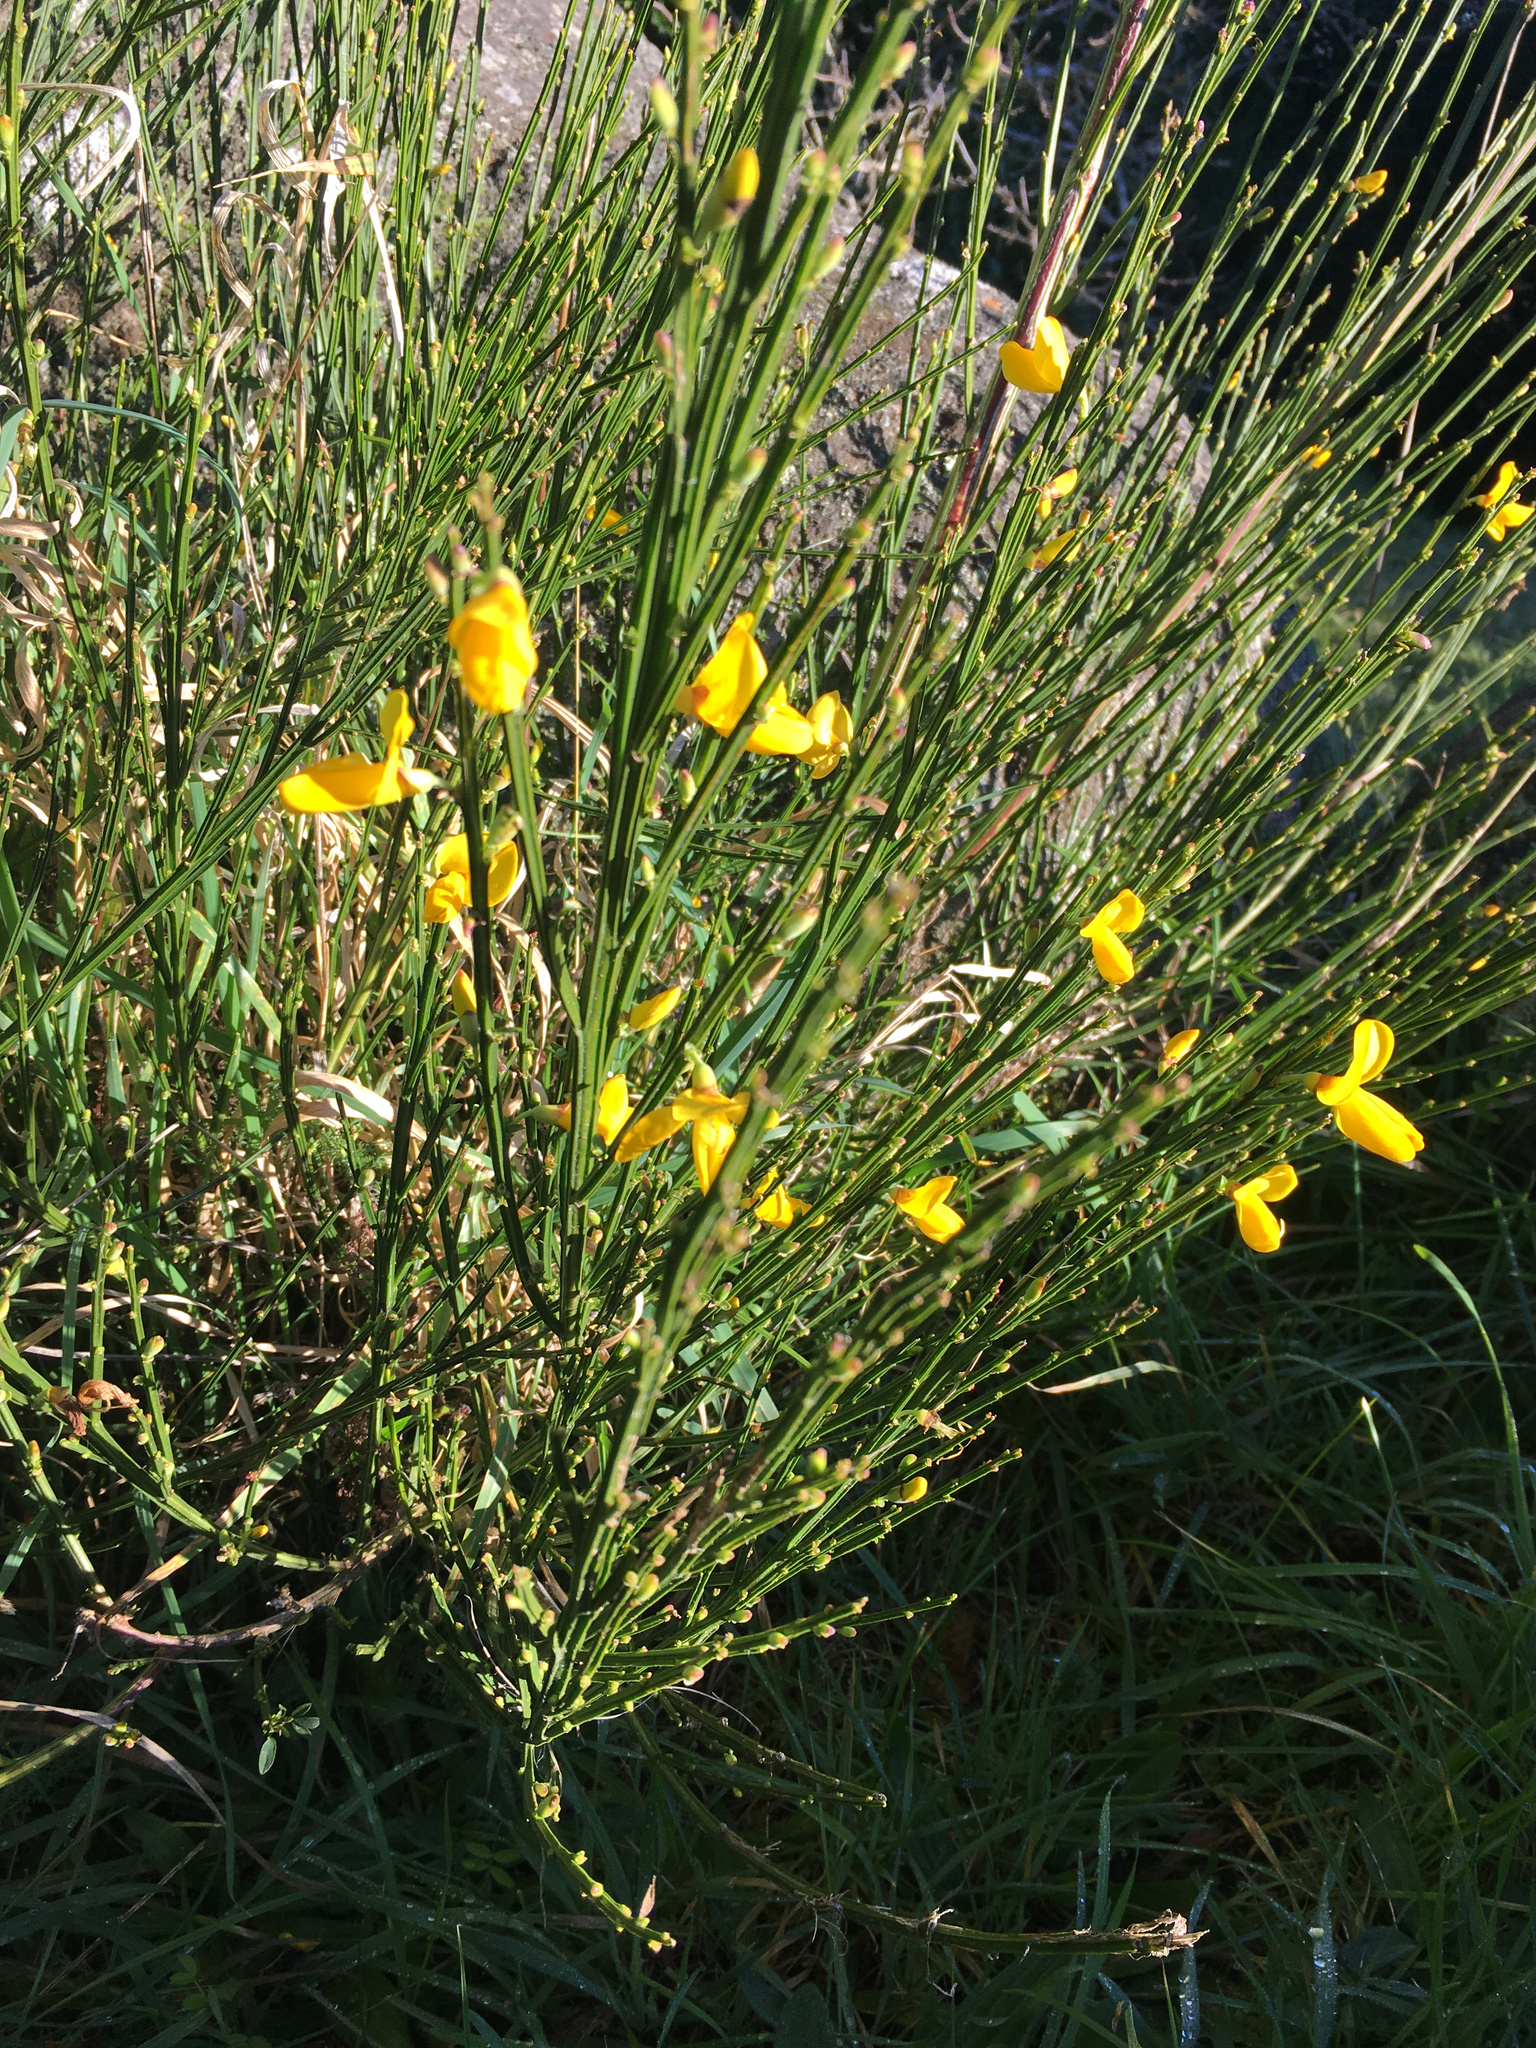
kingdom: Plantae
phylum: Tracheophyta
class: Magnoliopsida
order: Fabales
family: Fabaceae
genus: Cytisus
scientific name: Cytisus scoparius
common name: Scotch broom
